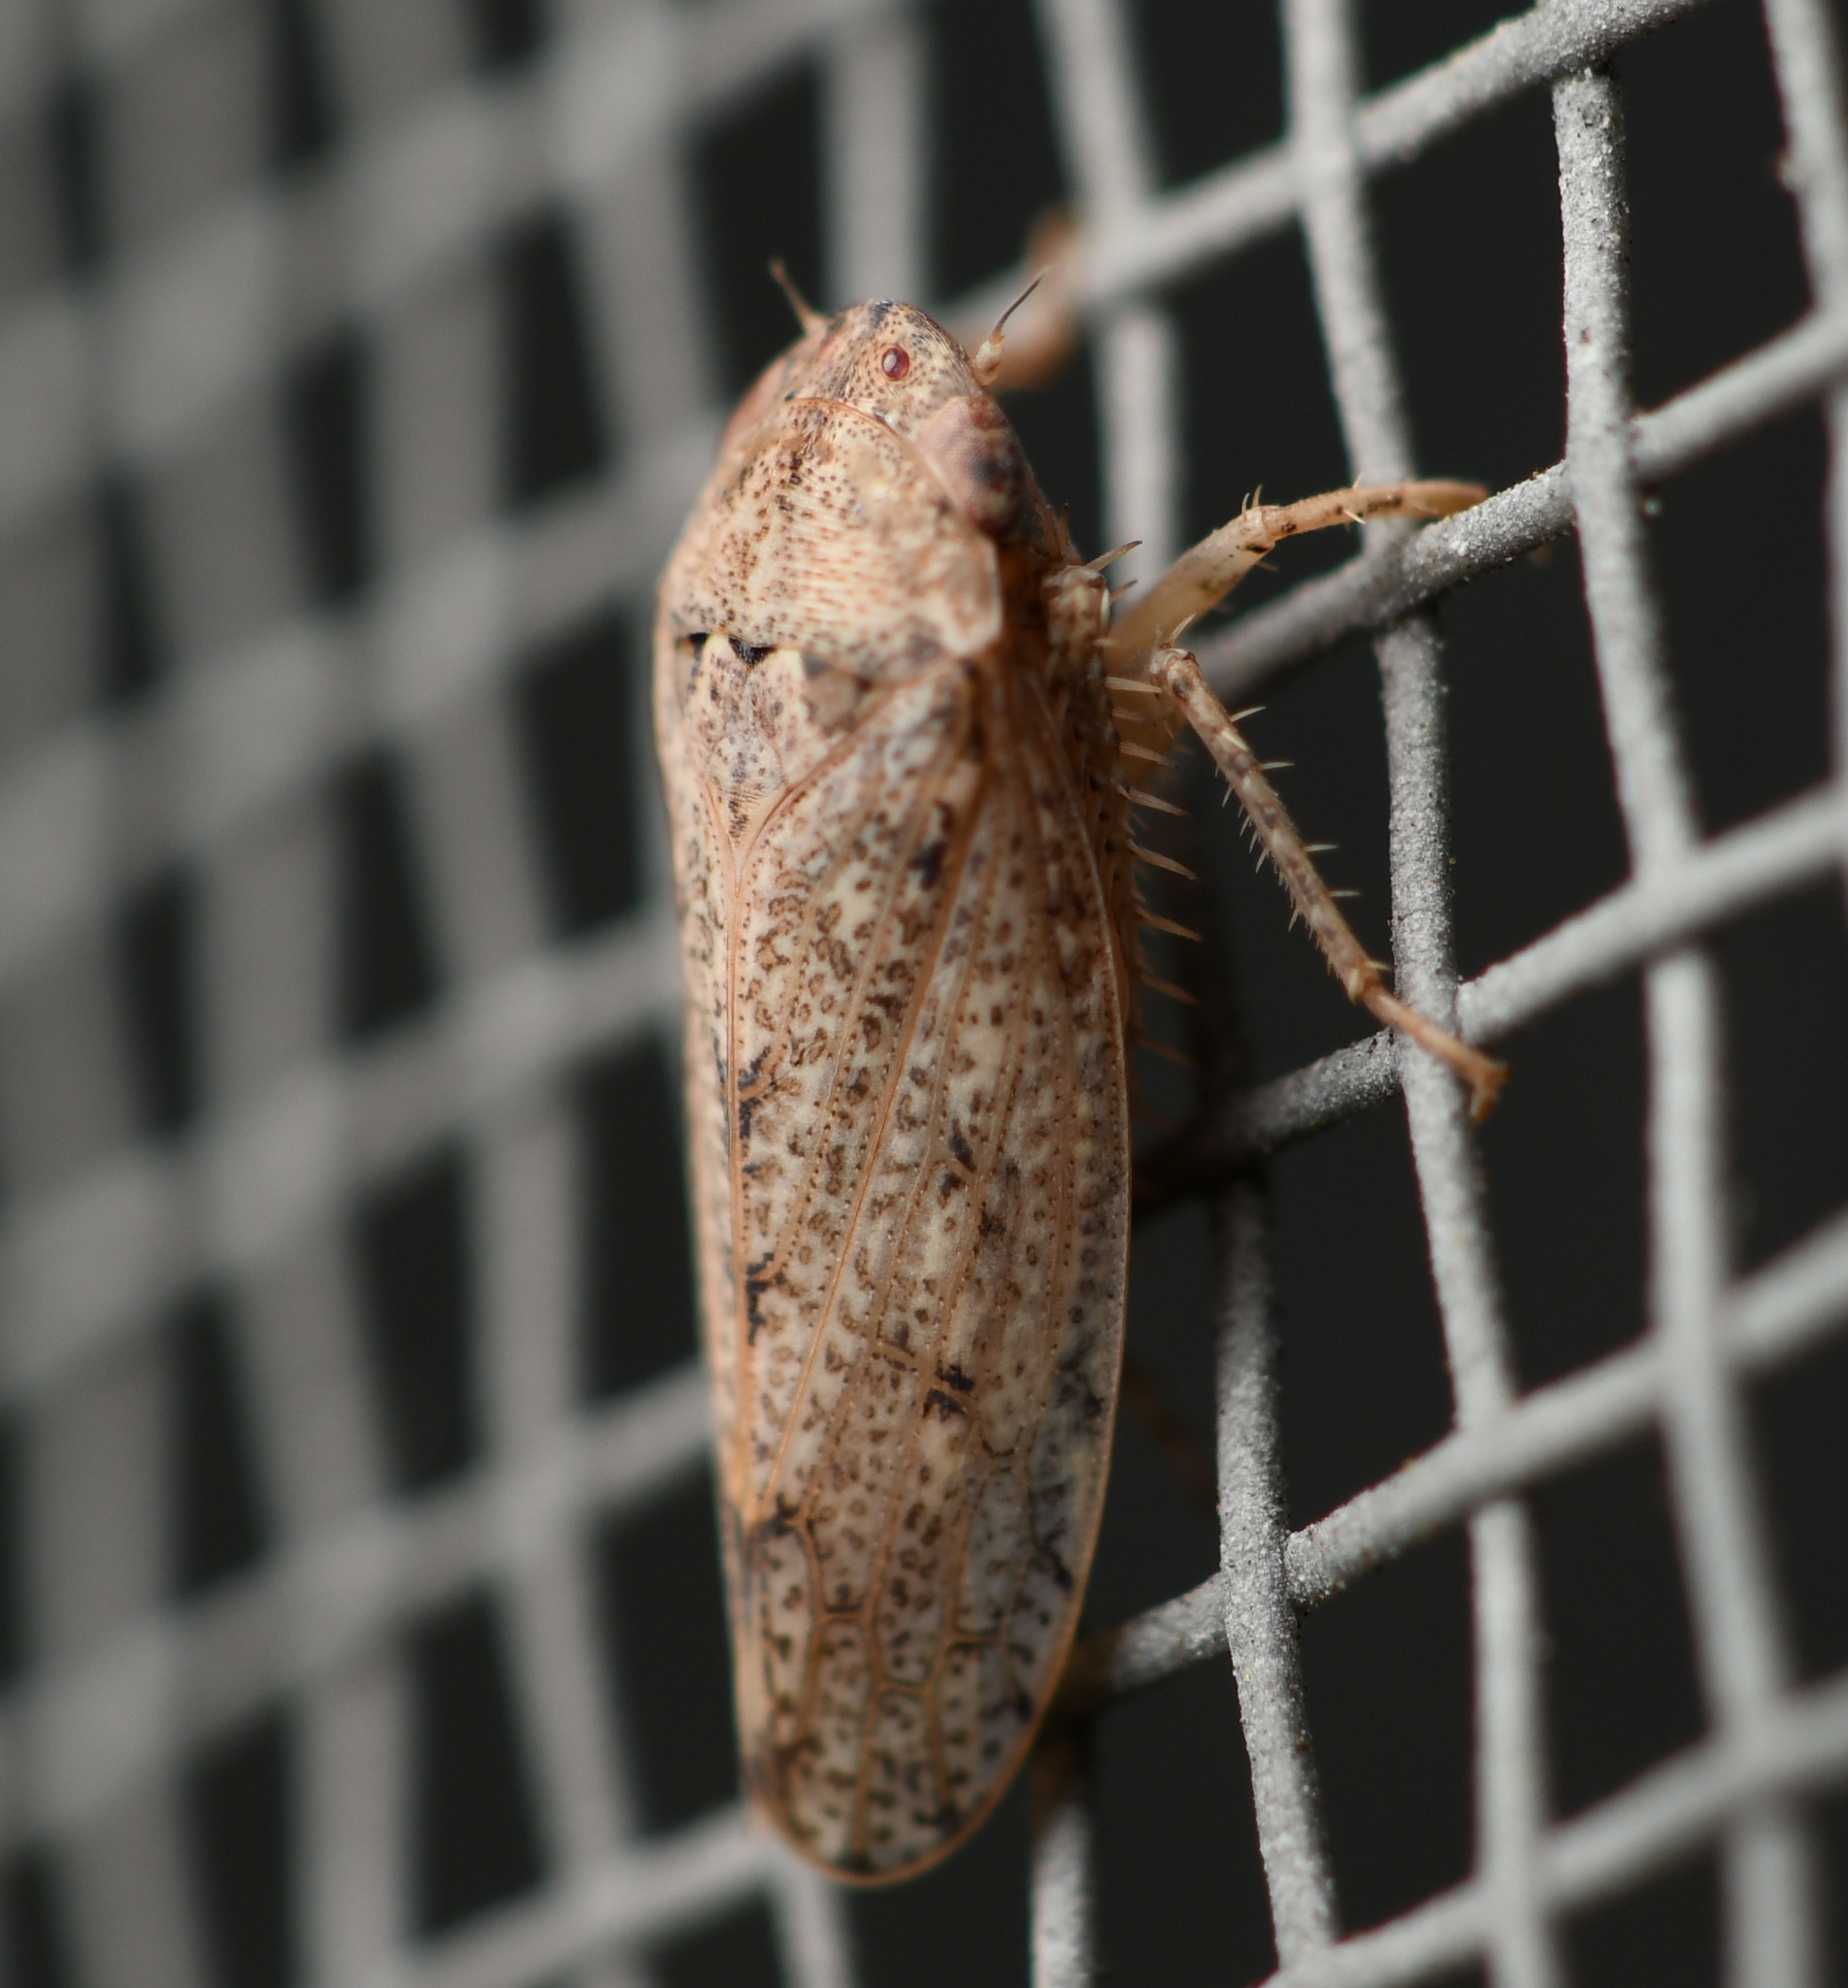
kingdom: Animalia
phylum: Arthropoda
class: Insecta
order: Hemiptera
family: Cicadellidae
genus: Curtara
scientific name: Curtara insularis
